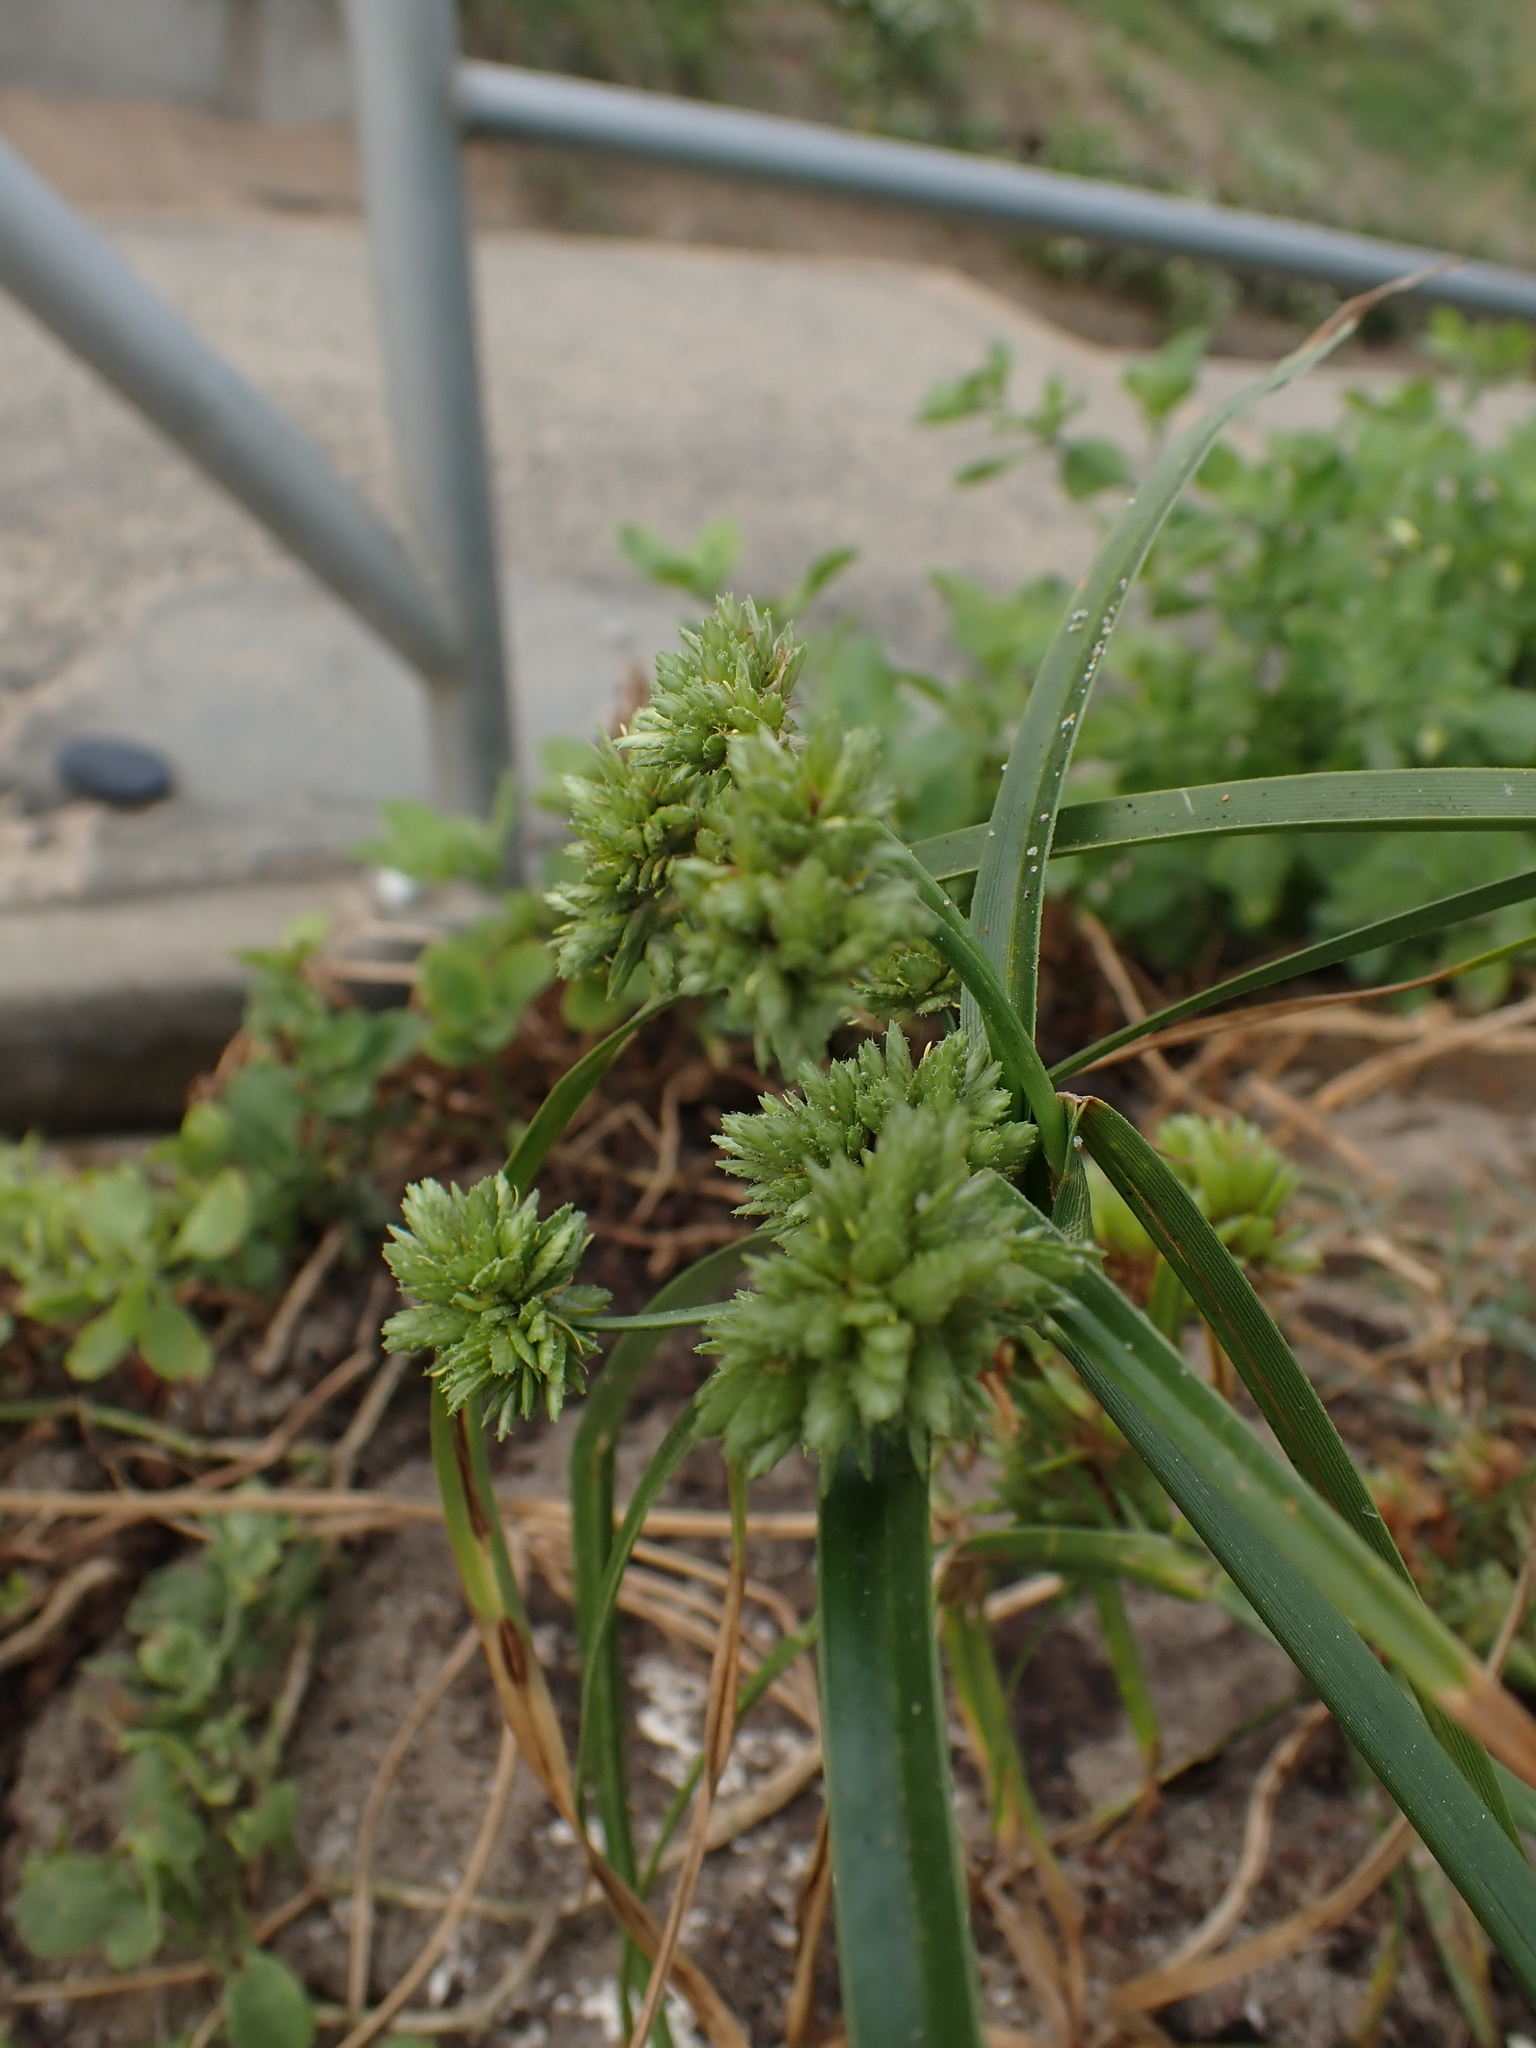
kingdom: Plantae
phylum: Tracheophyta
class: Liliopsida
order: Poales
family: Cyperaceae
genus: Cyperus
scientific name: Cyperus eragrostis
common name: Tall flatsedge
